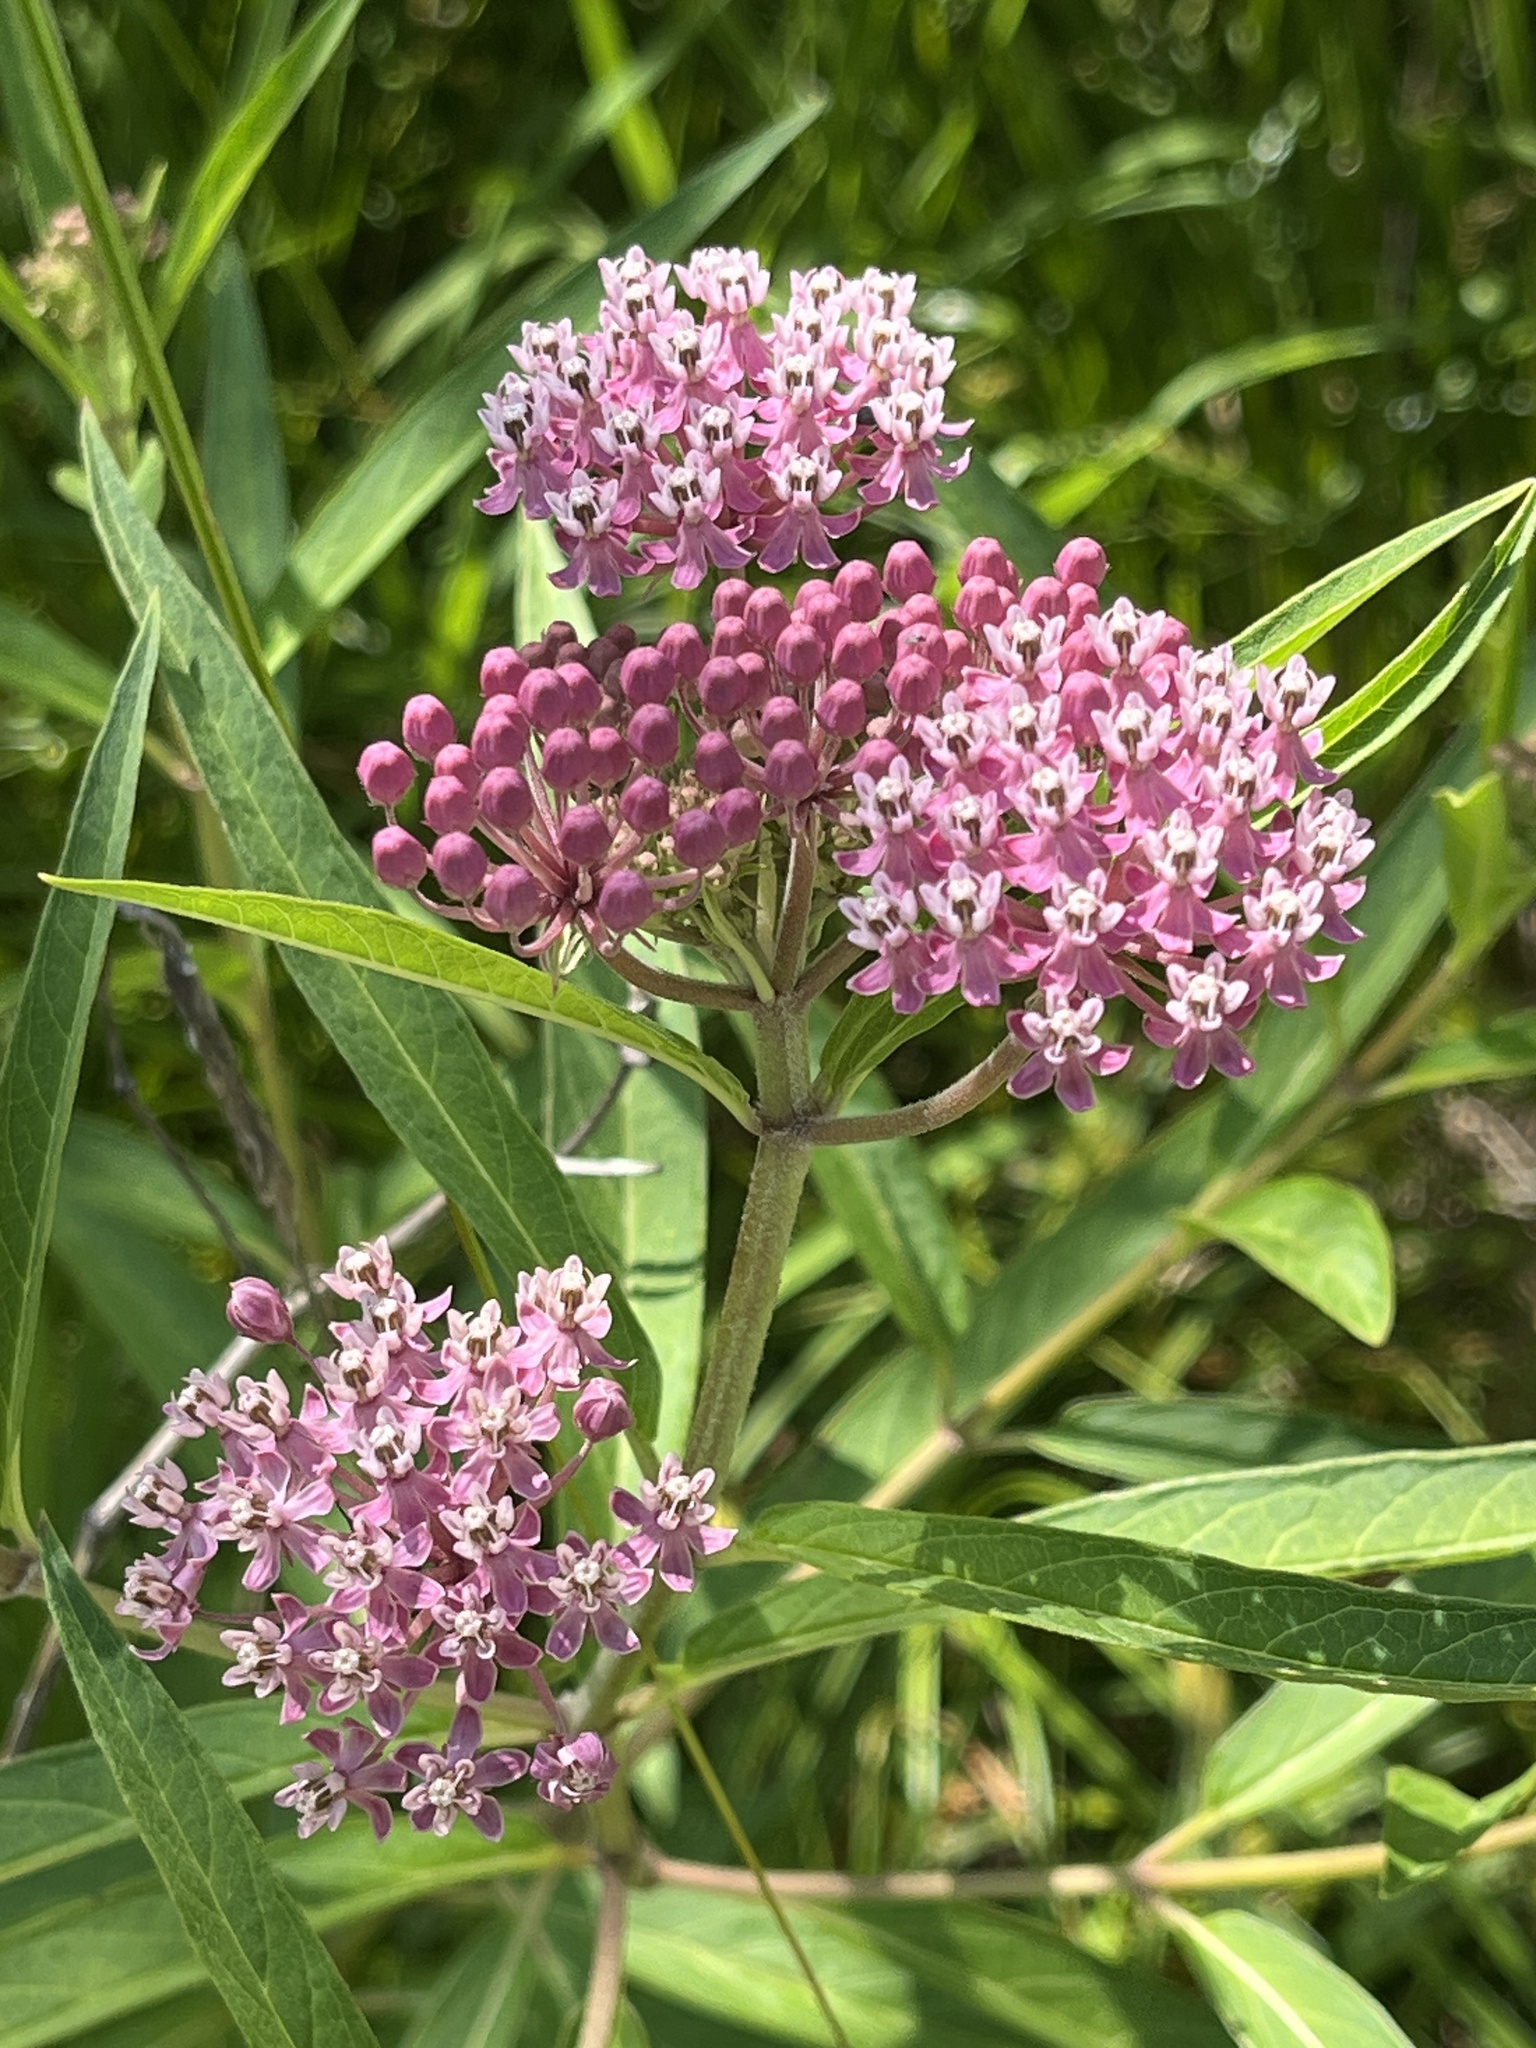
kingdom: Plantae
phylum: Tracheophyta
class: Magnoliopsida
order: Gentianales
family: Apocynaceae
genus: Asclepias
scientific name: Asclepias incarnata
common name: Swamp milkweed
